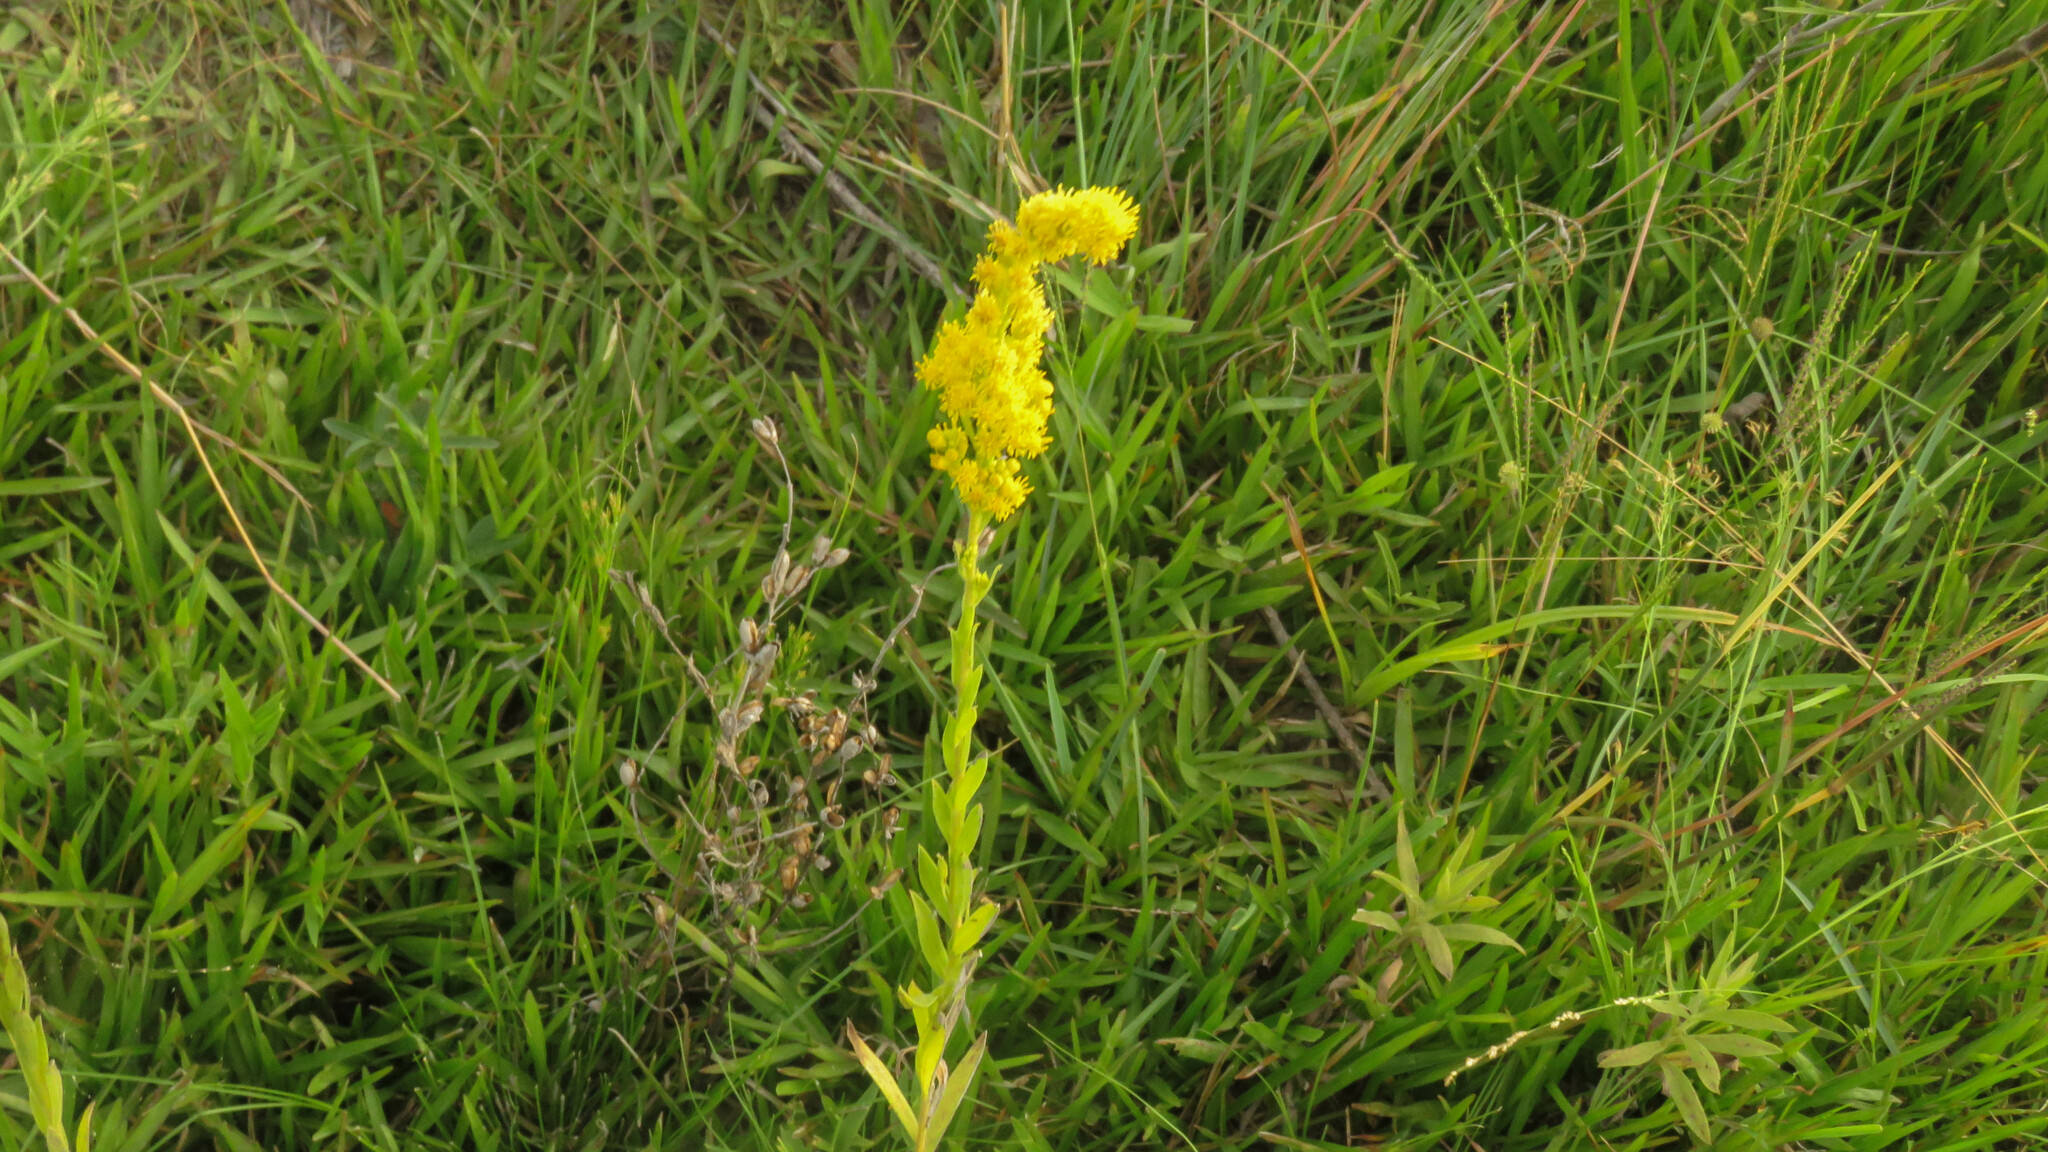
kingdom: Plantae
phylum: Tracheophyta
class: Magnoliopsida
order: Asterales
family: Asteraceae
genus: Solidago
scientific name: Solidago chilensis
